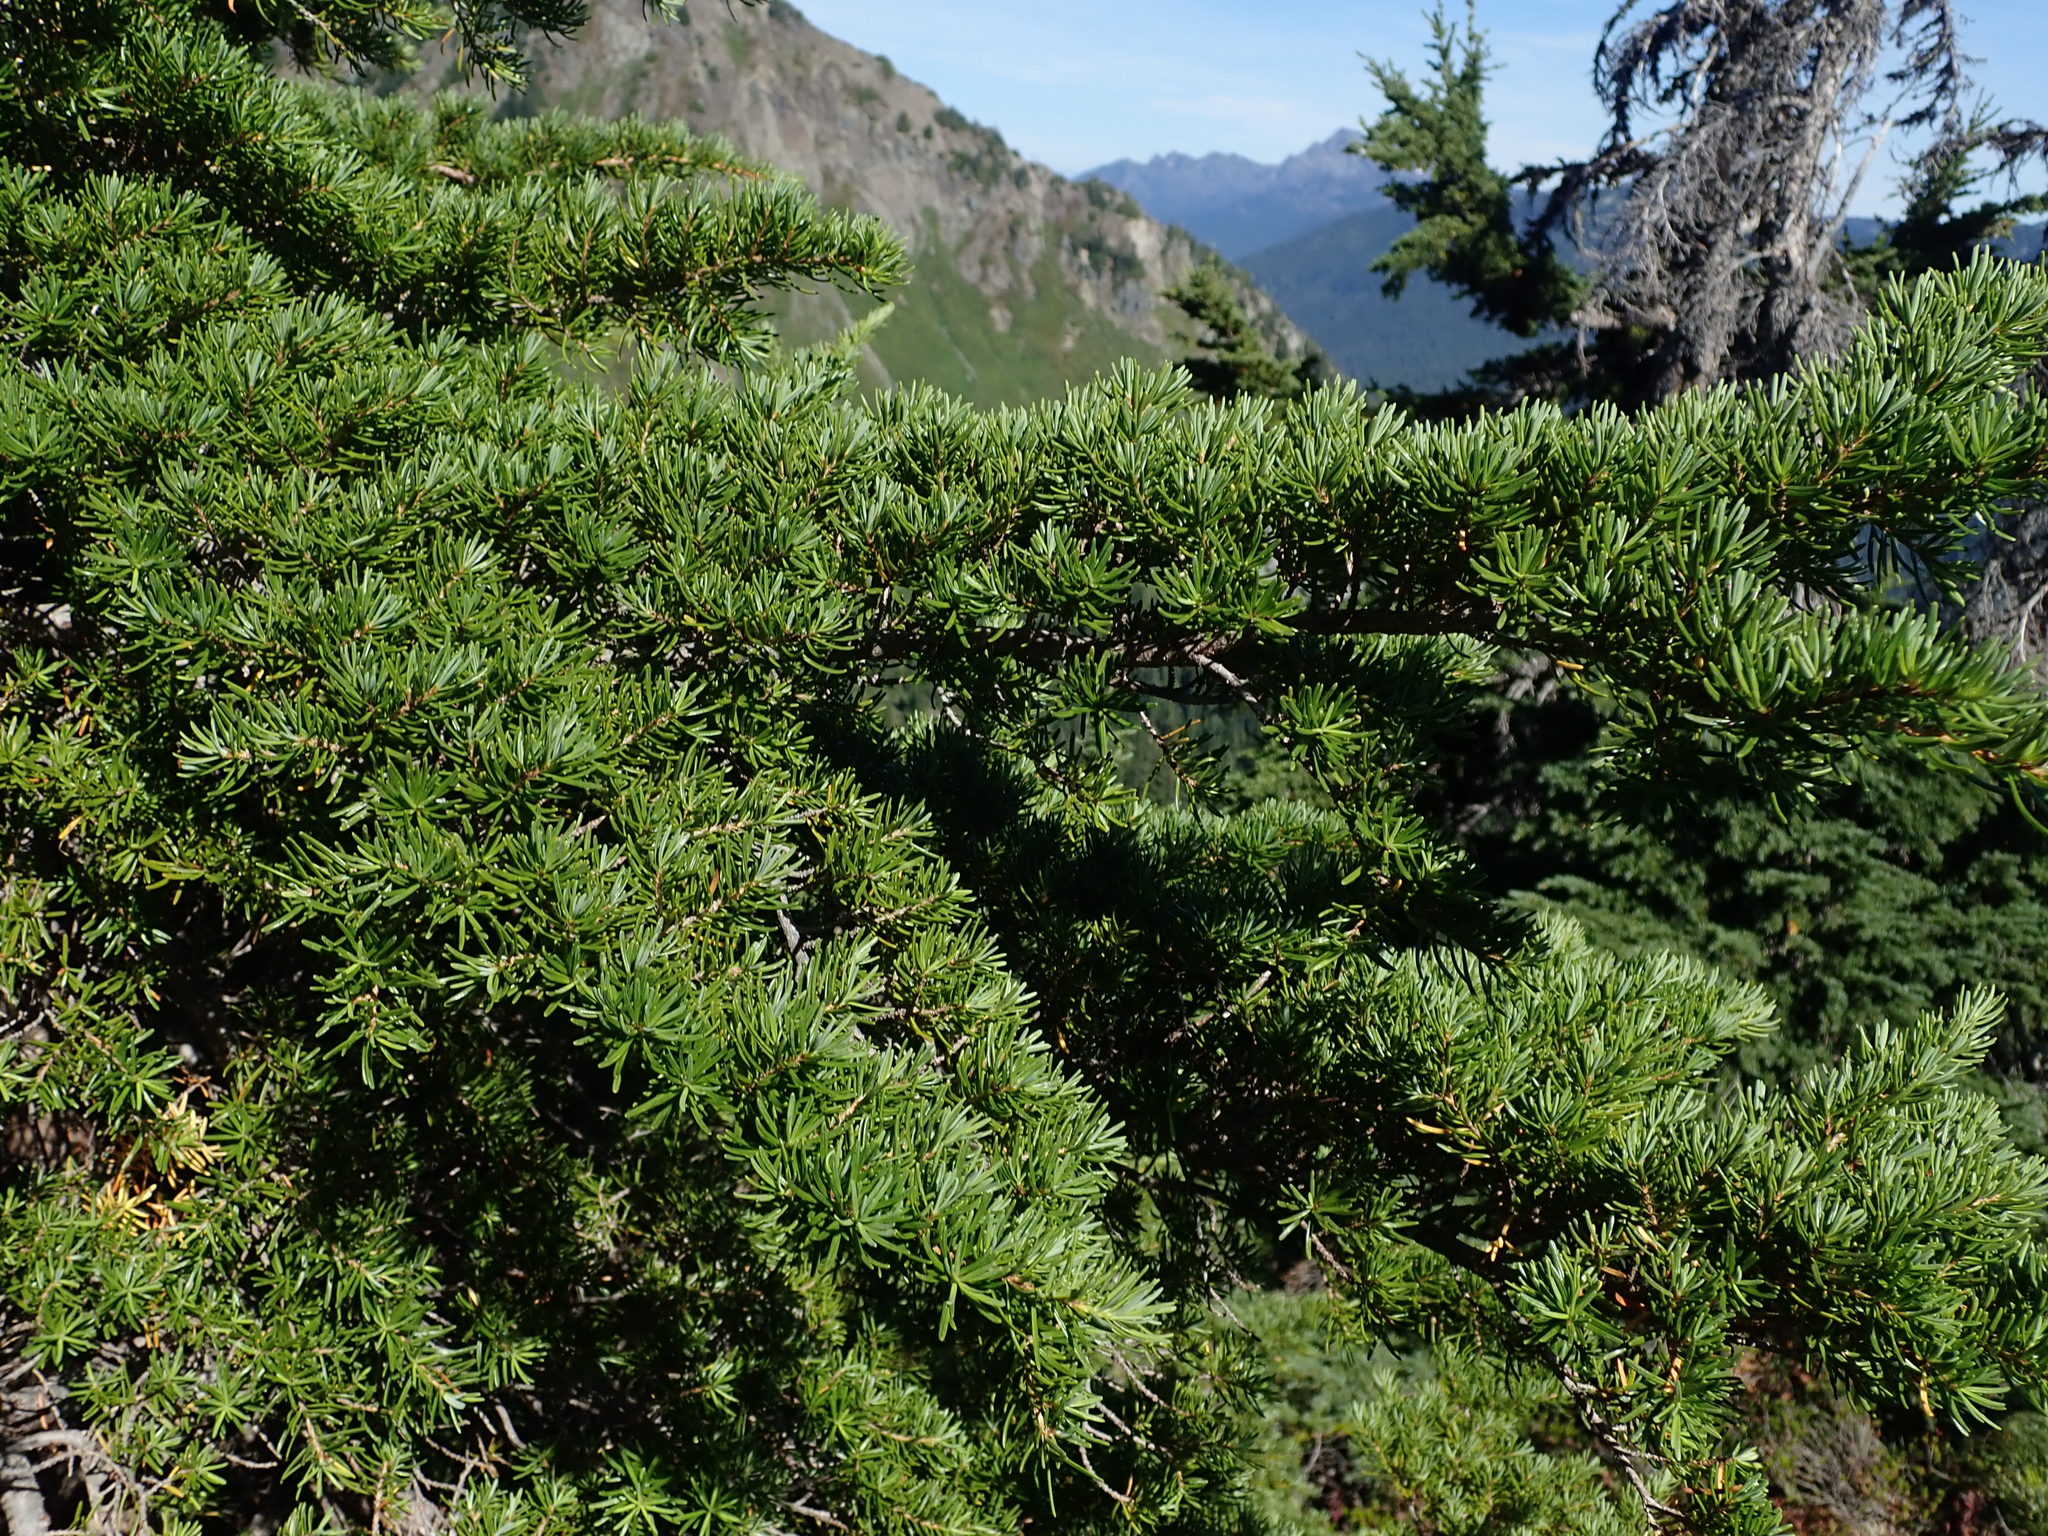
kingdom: Plantae
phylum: Tracheophyta
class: Pinopsida
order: Pinales
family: Pinaceae
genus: Tsuga
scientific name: Tsuga mertensiana
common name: Mountain hemlock
